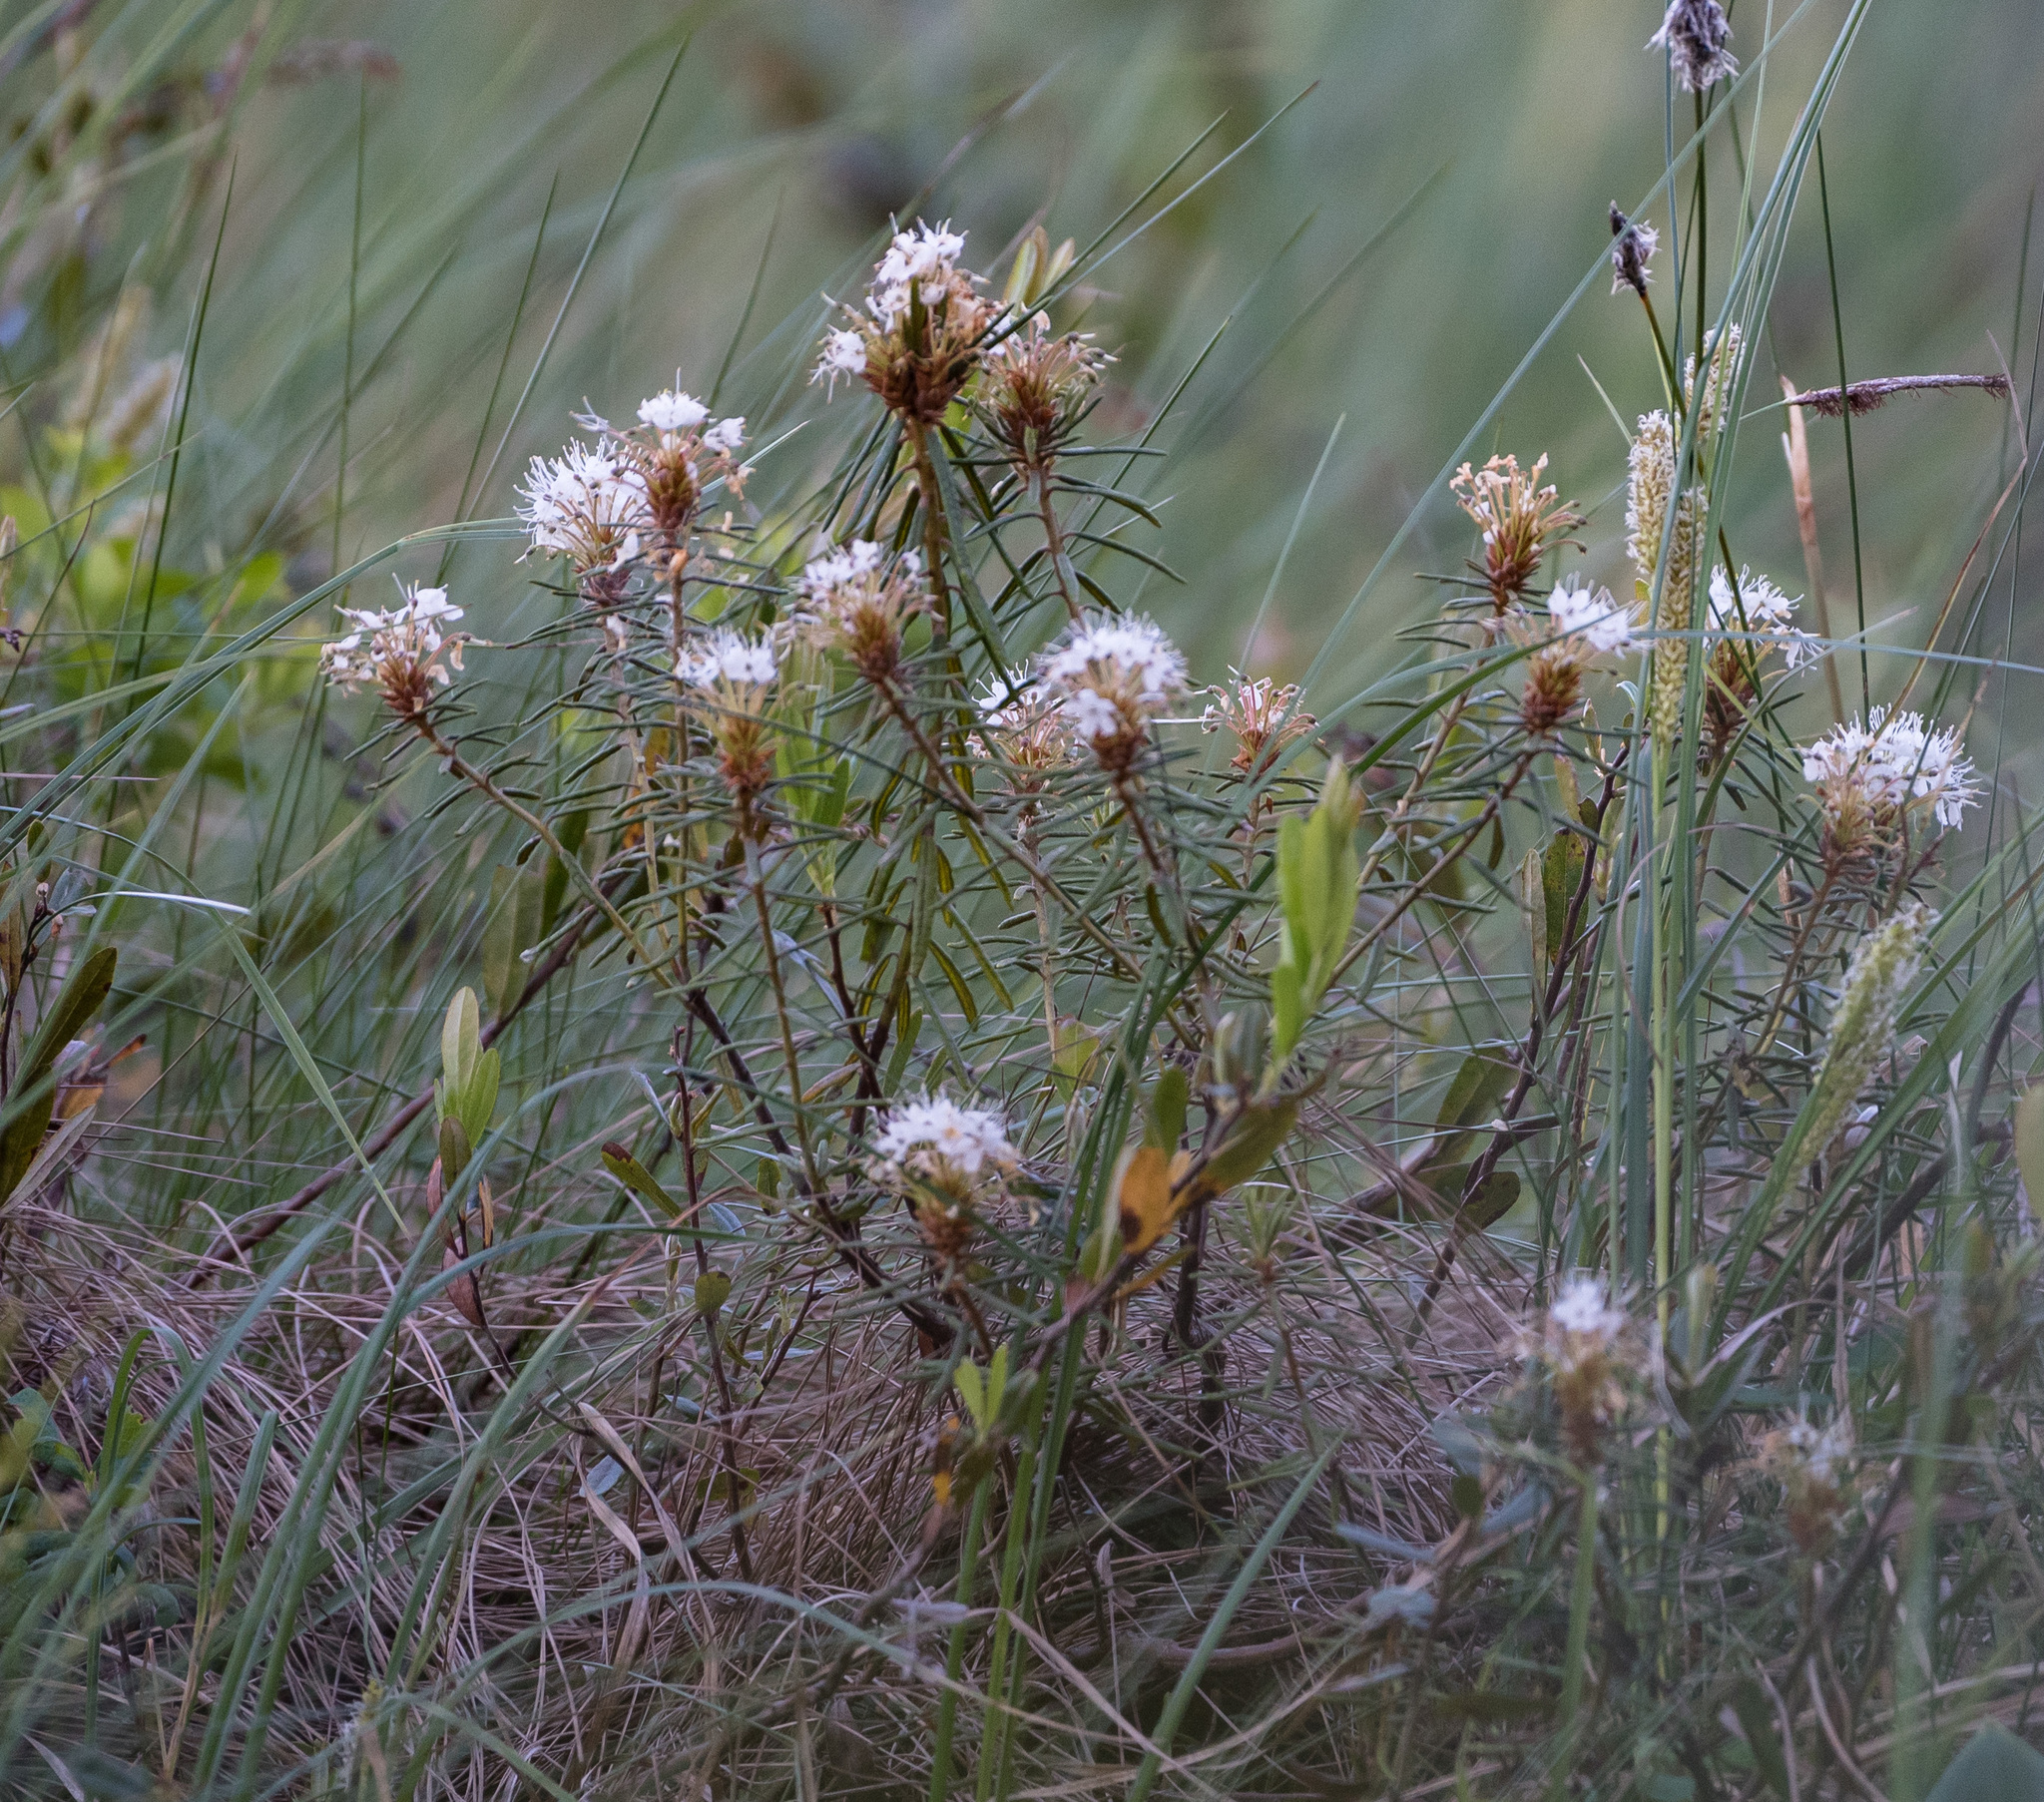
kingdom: Plantae
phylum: Tracheophyta
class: Magnoliopsida
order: Ericales
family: Ericaceae
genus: Rhododendron
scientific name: Rhododendron tomentosum
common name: Marsh labrador tea
